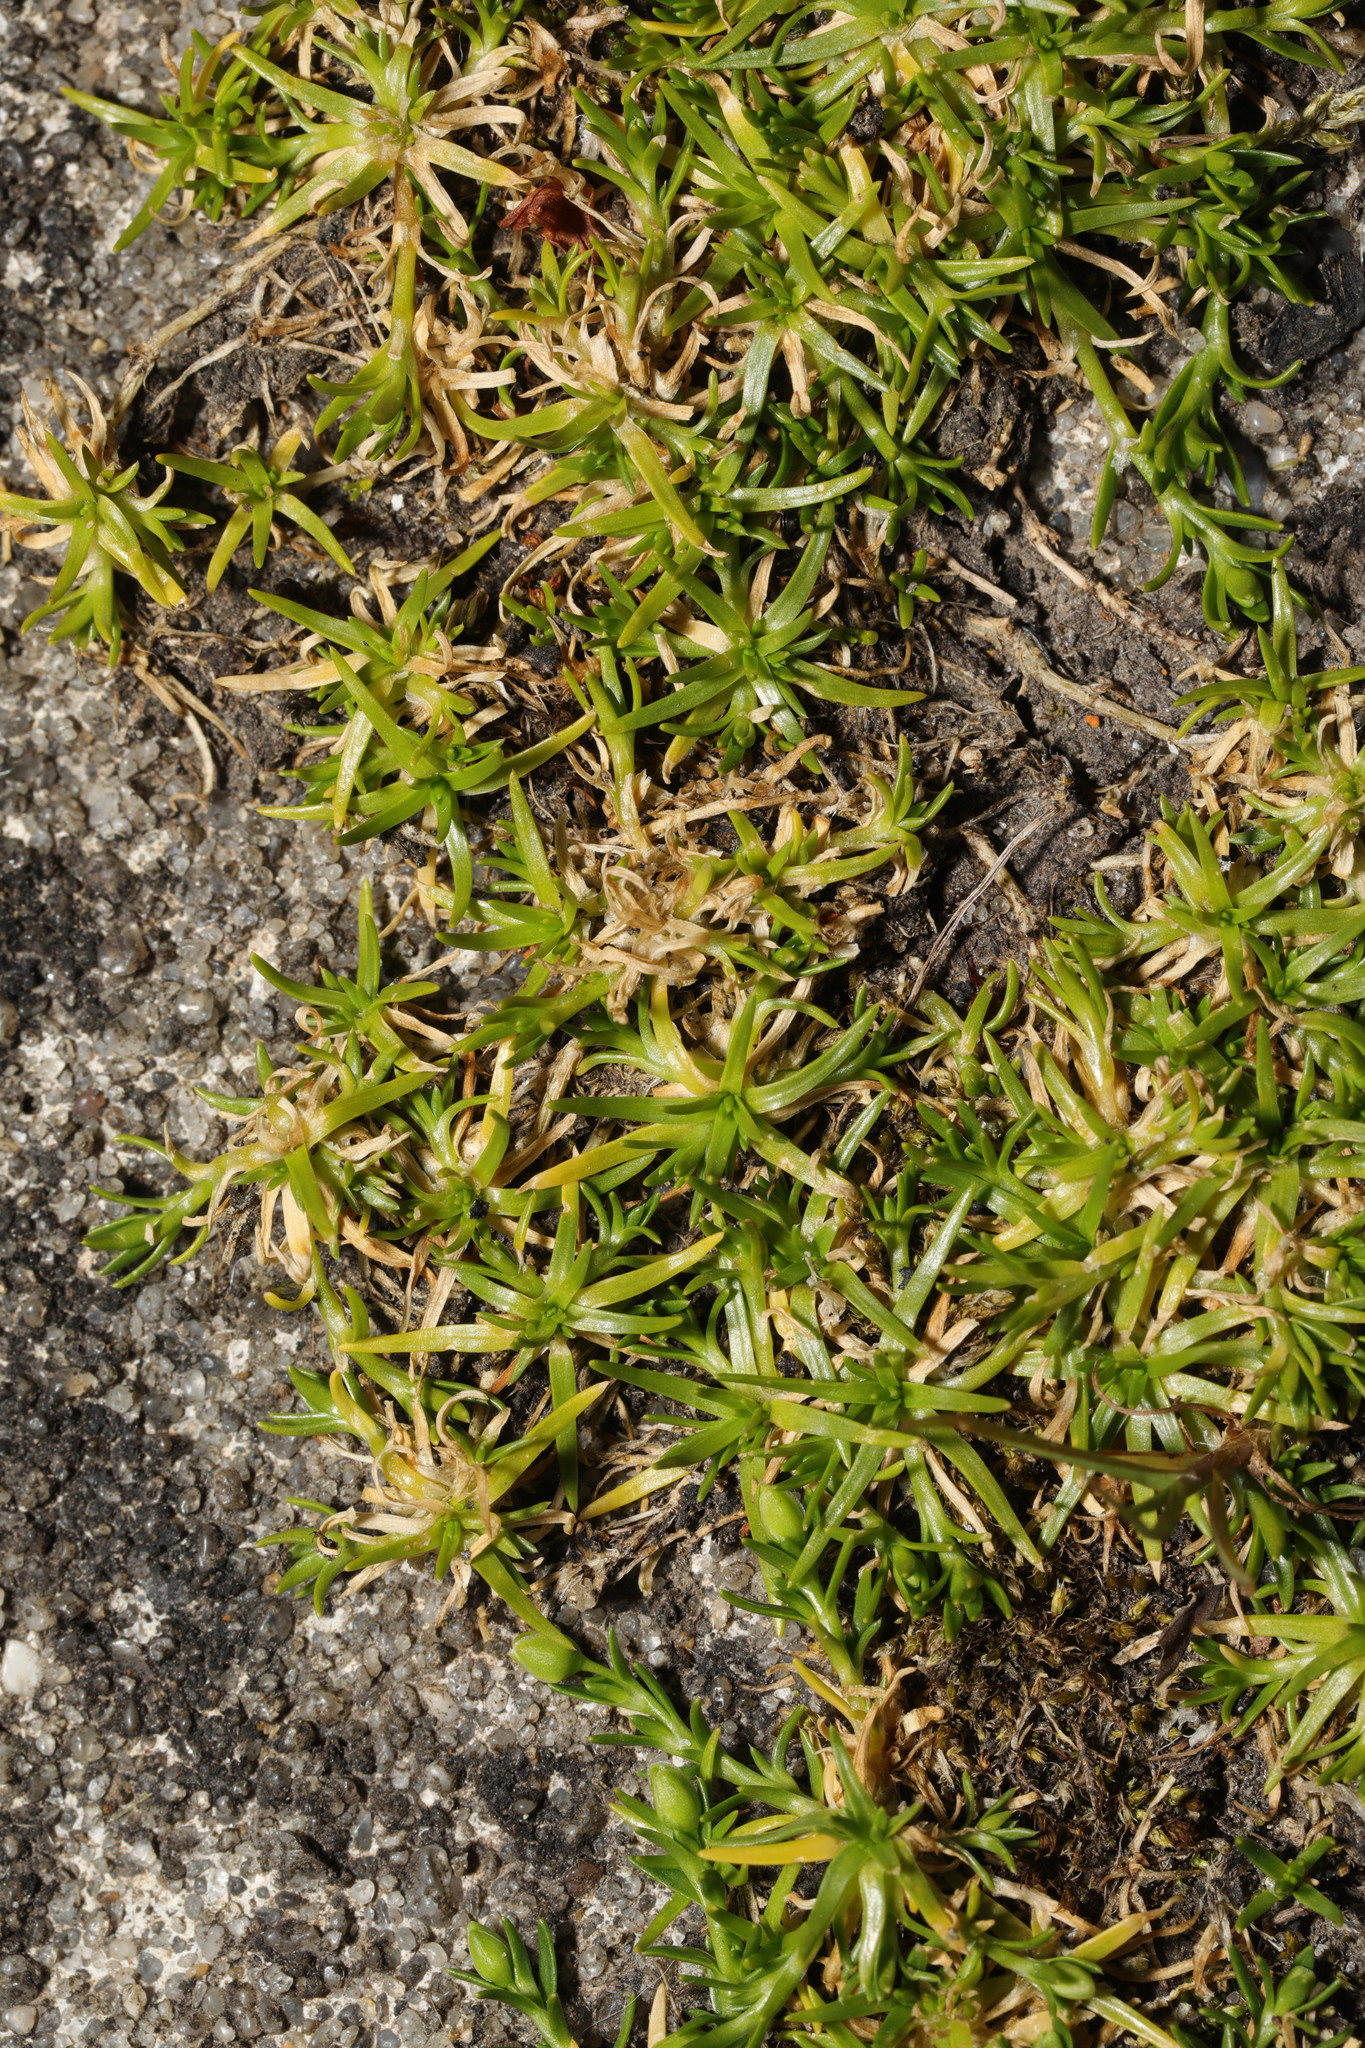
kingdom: Plantae
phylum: Tracheophyta
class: Magnoliopsida
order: Caryophyllales
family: Caryophyllaceae
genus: Sagina
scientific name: Sagina procumbens
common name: Procumbent pearlwort
